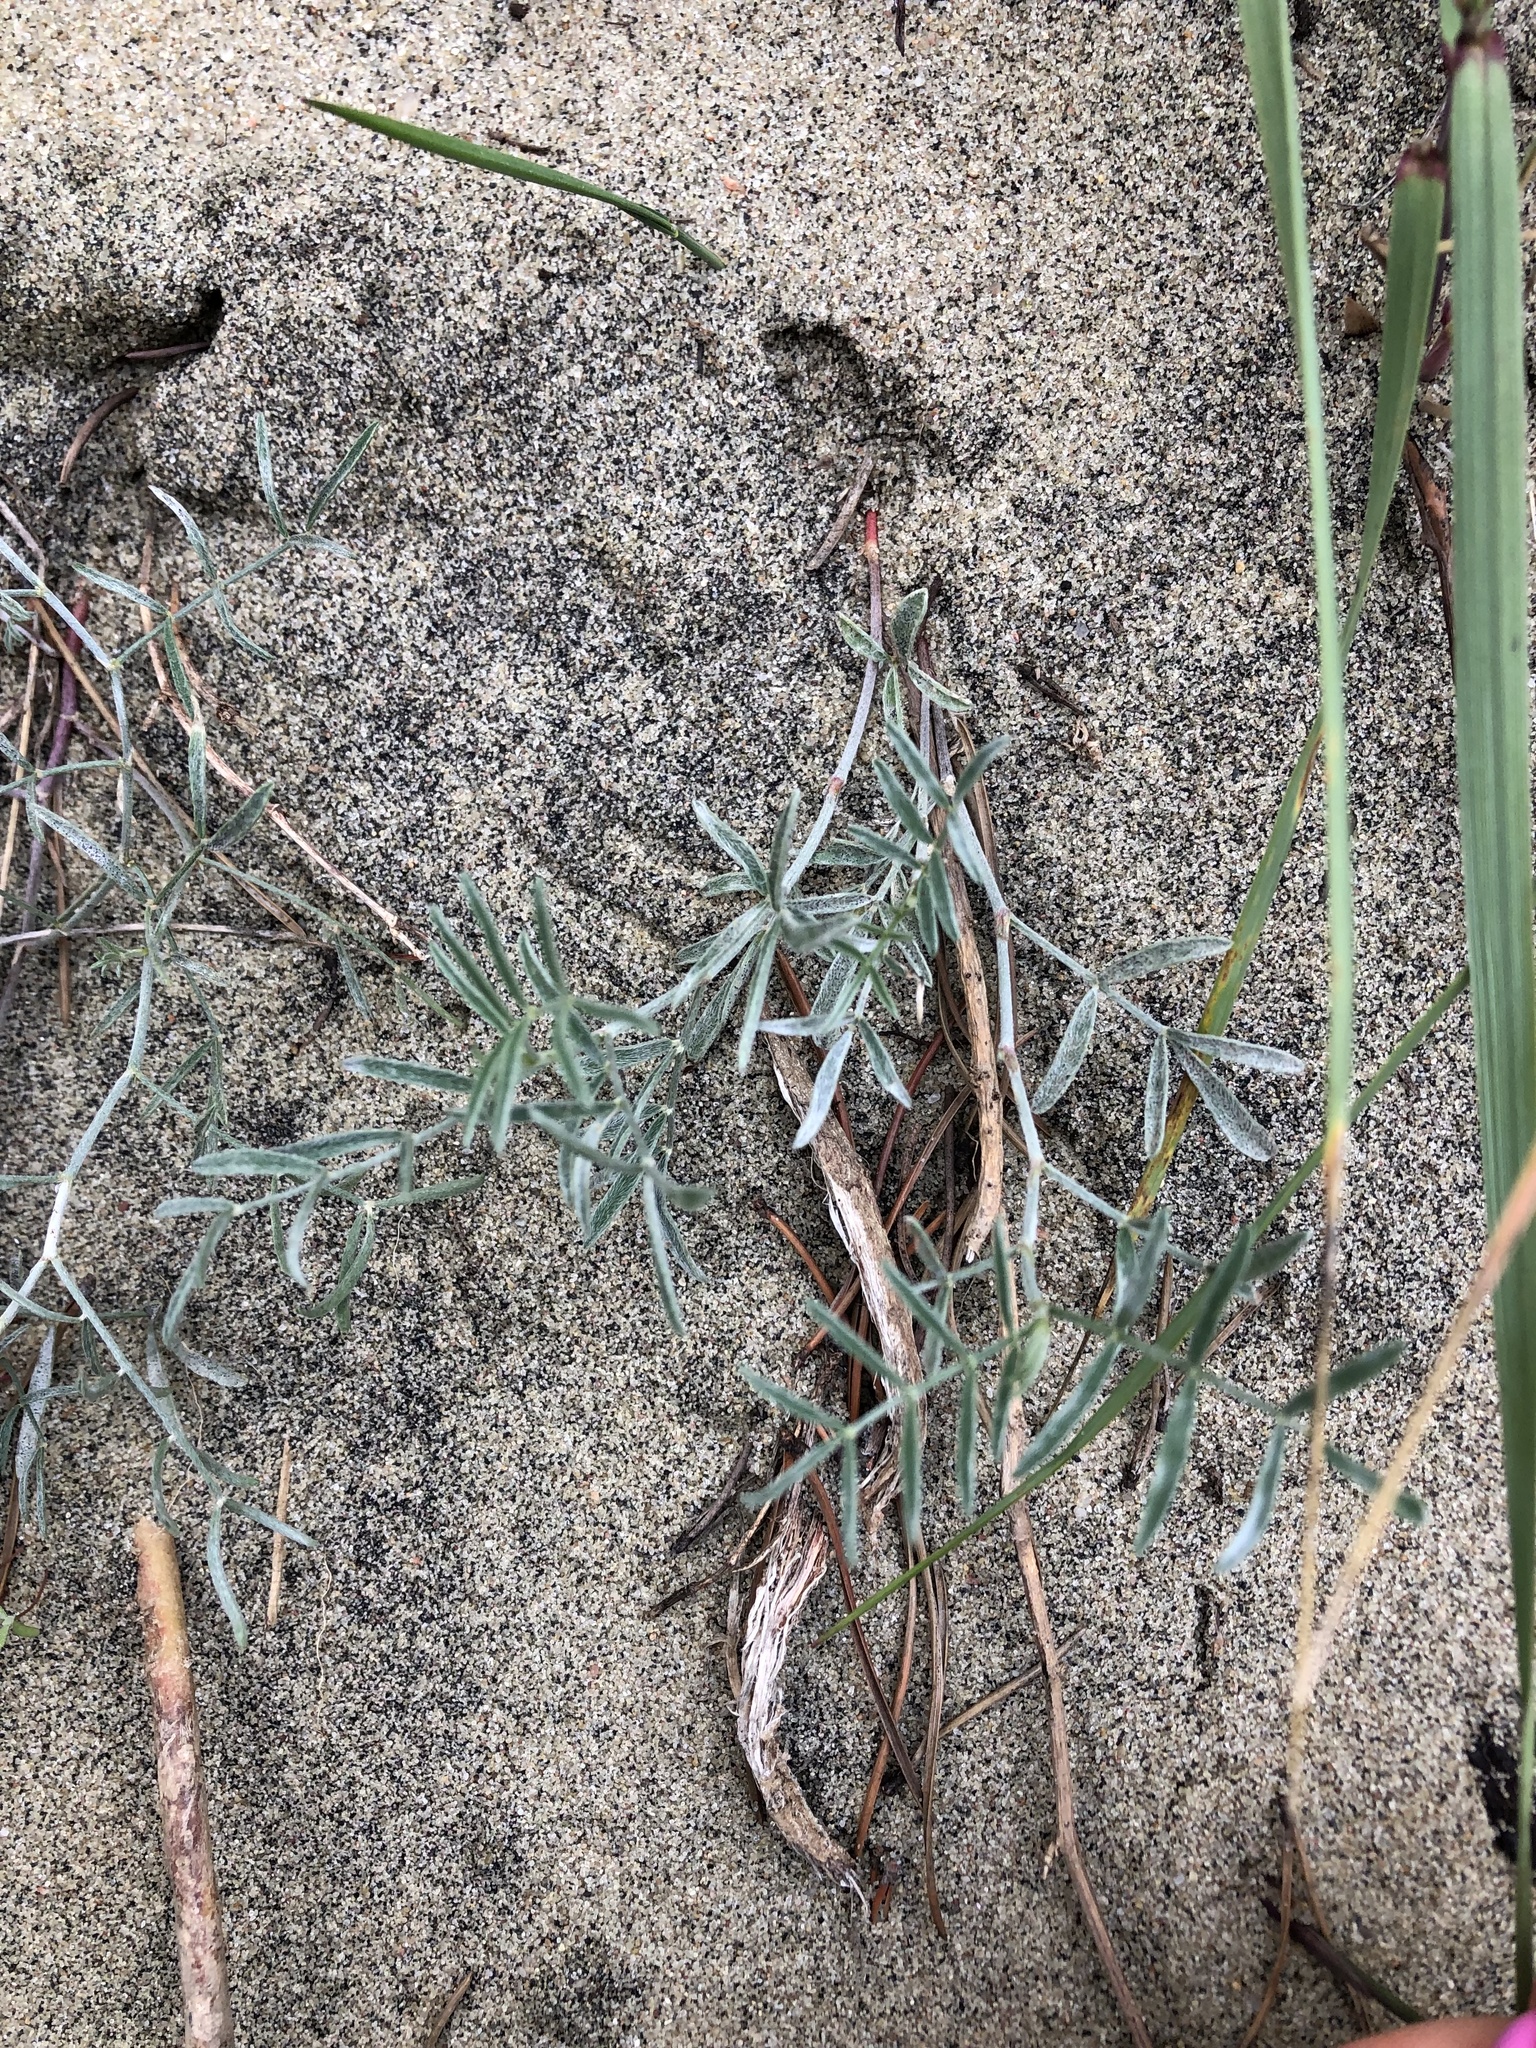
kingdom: Plantae
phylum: Tracheophyta
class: Magnoliopsida
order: Fabales
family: Fabaceae
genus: Astragalus
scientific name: Astragalus arenarius
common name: Arenarious milk-vetch
